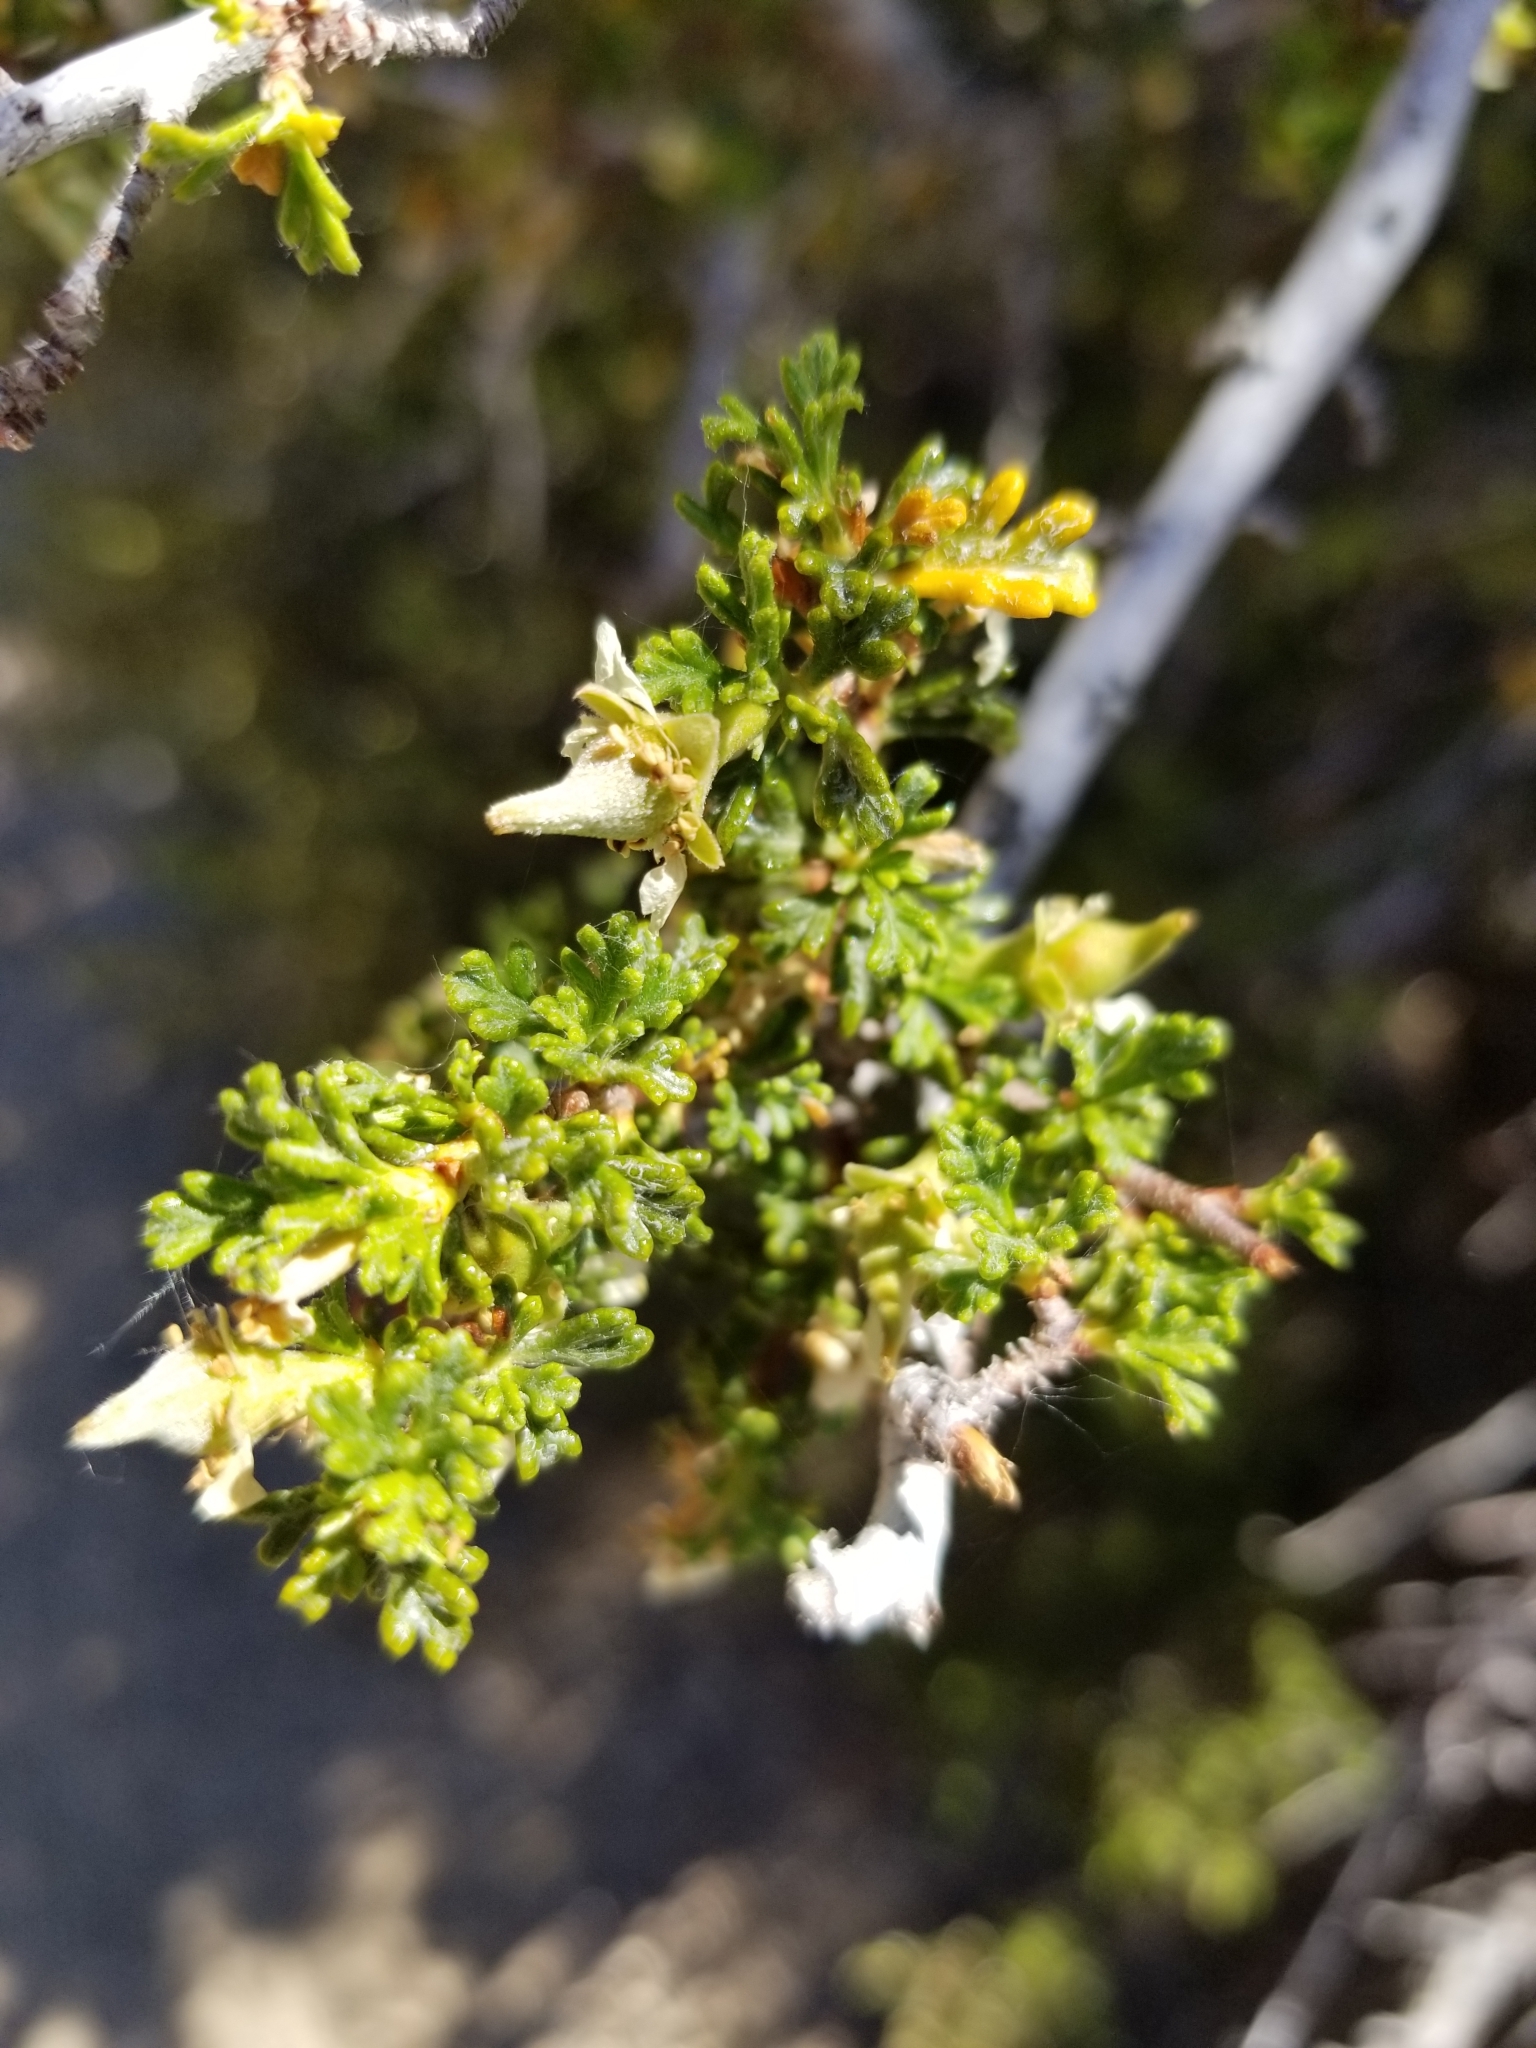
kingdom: Plantae
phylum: Tracheophyta
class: Magnoliopsida
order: Rosales
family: Rosaceae
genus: Purshia
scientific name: Purshia glandulosa
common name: Desert bitterbrush
